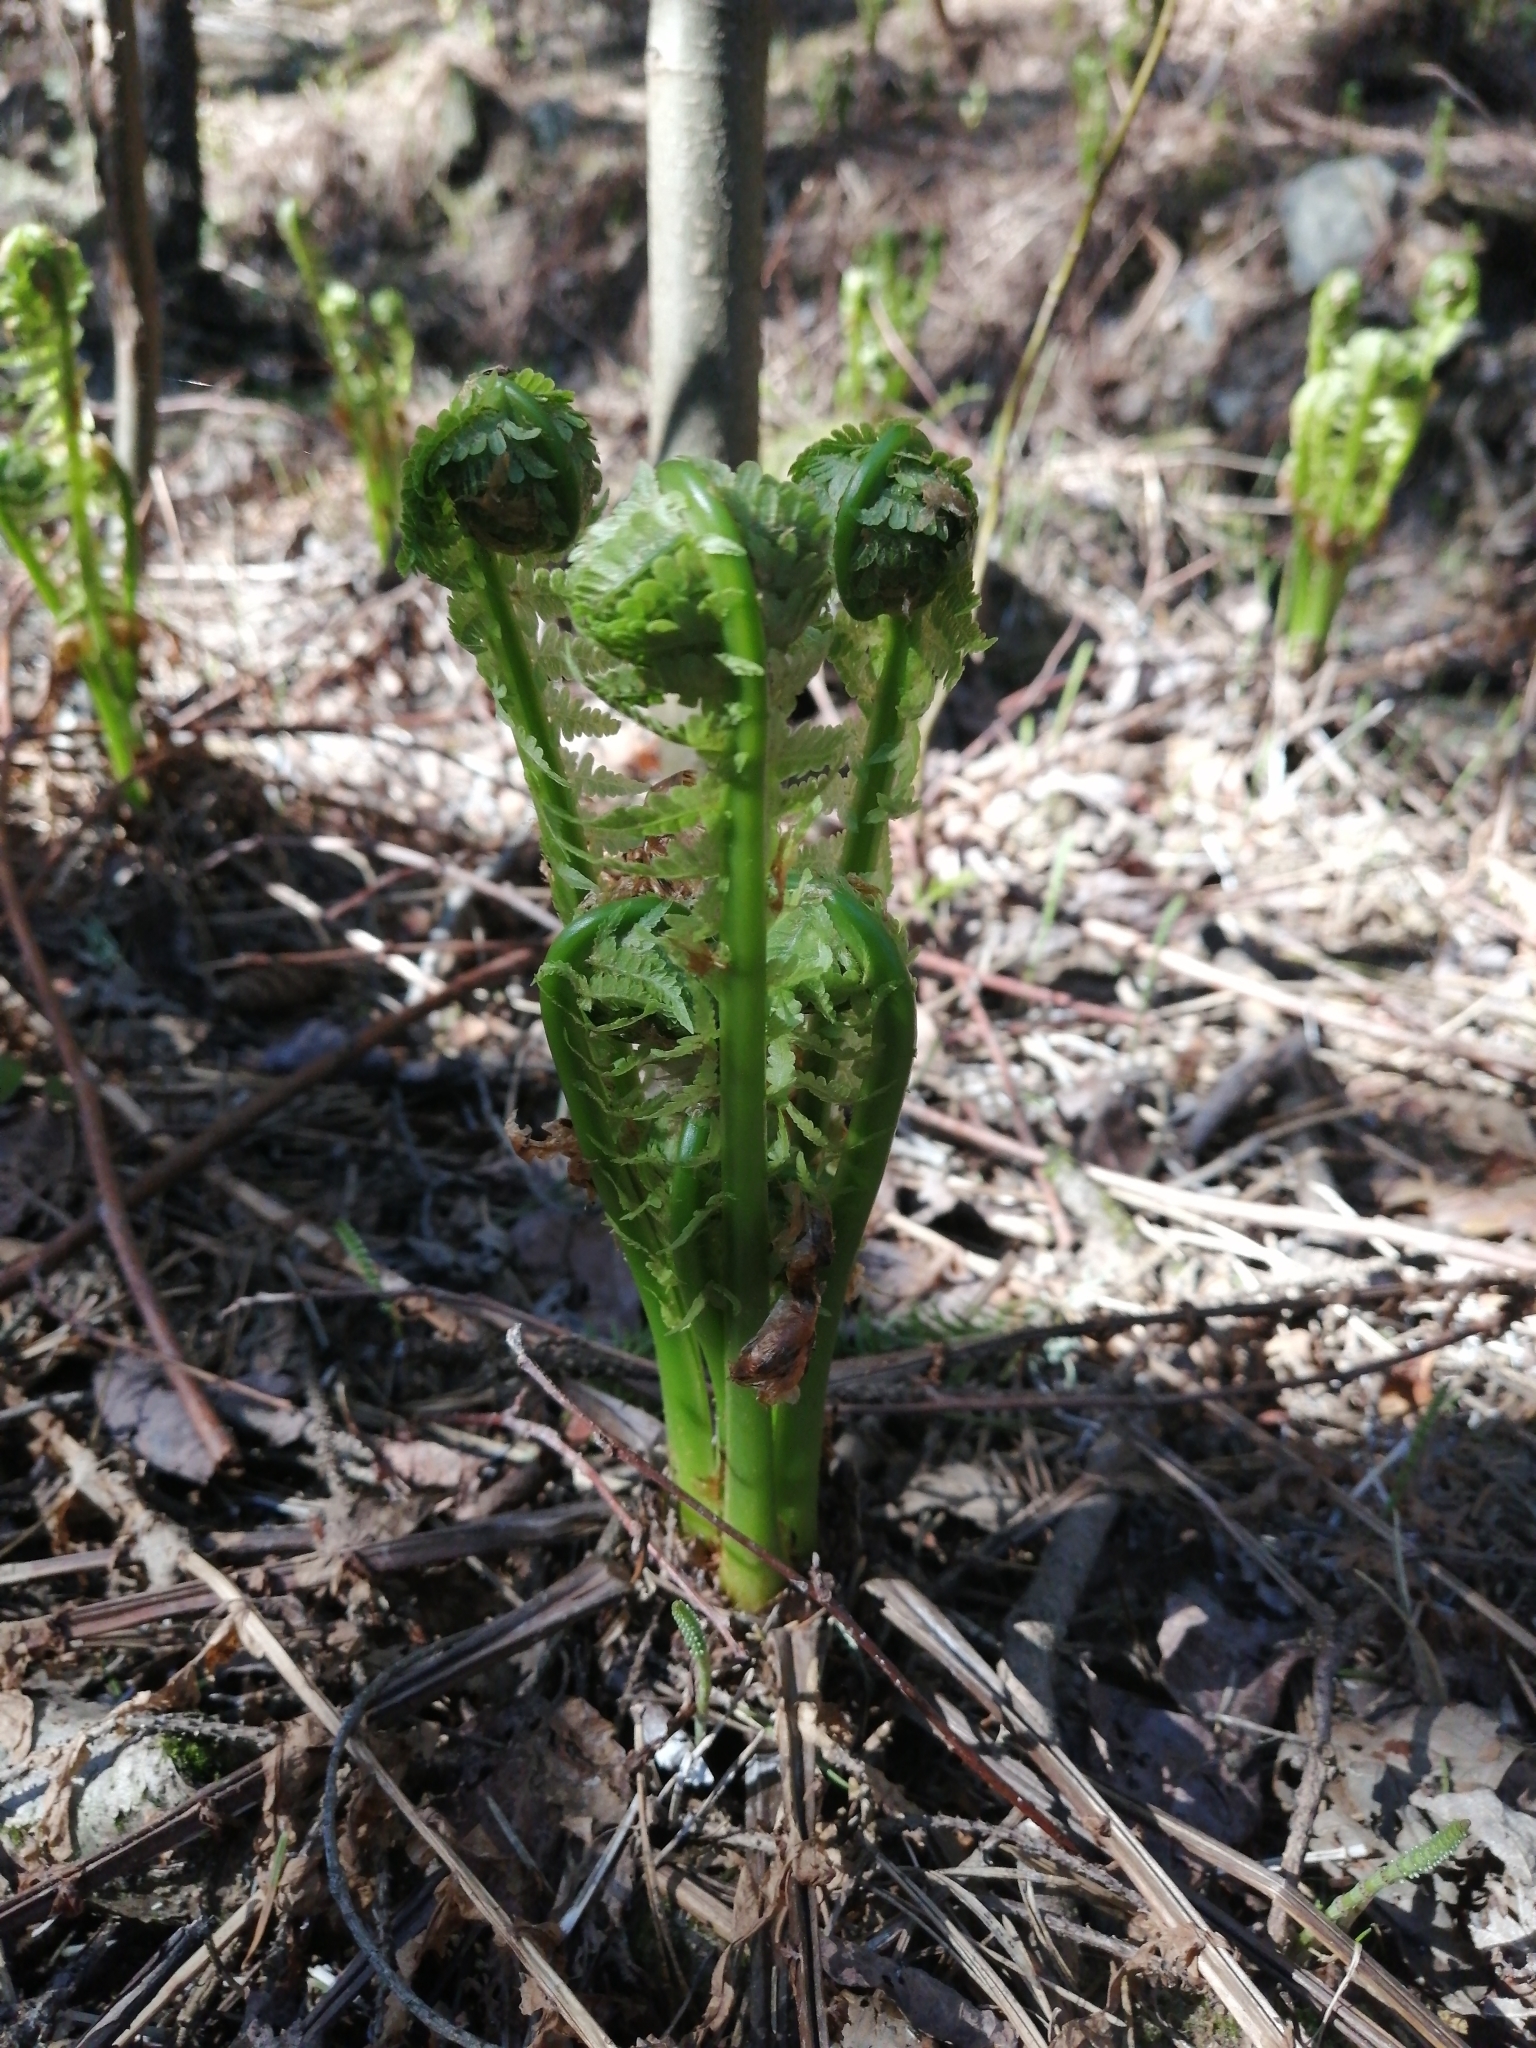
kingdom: Plantae
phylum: Tracheophyta
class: Polypodiopsida
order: Polypodiales
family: Onocleaceae
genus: Matteuccia
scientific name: Matteuccia struthiopteris
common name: Ostrich fern
